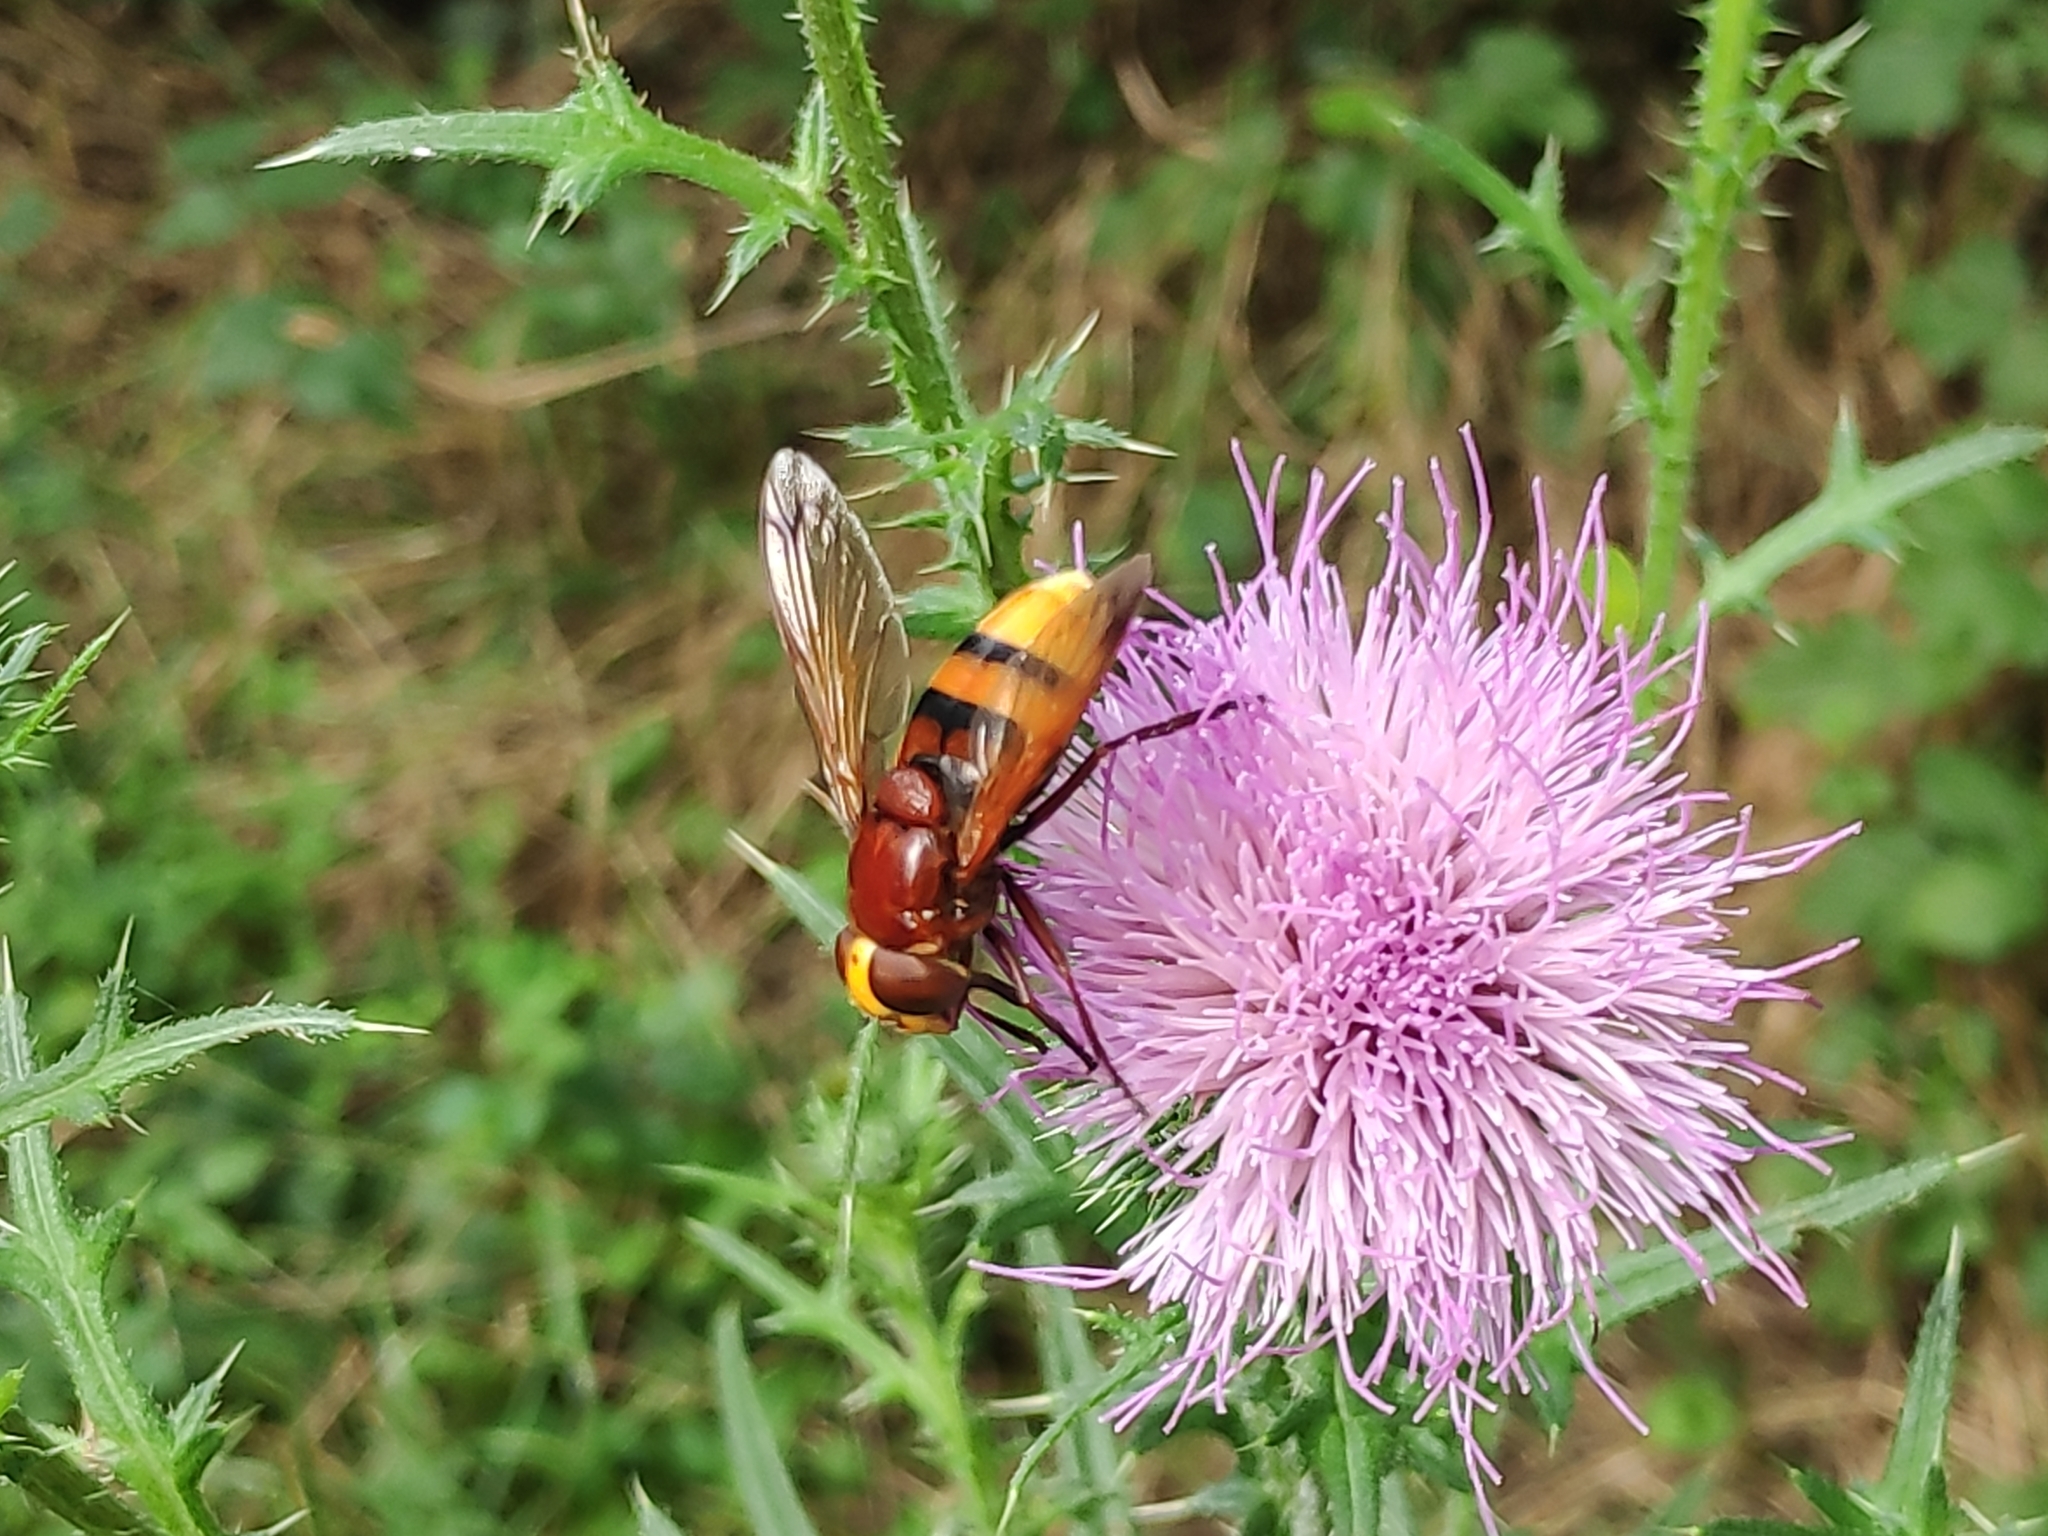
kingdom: Animalia
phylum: Arthropoda
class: Insecta
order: Diptera
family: Syrphidae
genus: Volucella
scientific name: Volucella zonaria
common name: Hornet hoverfly
